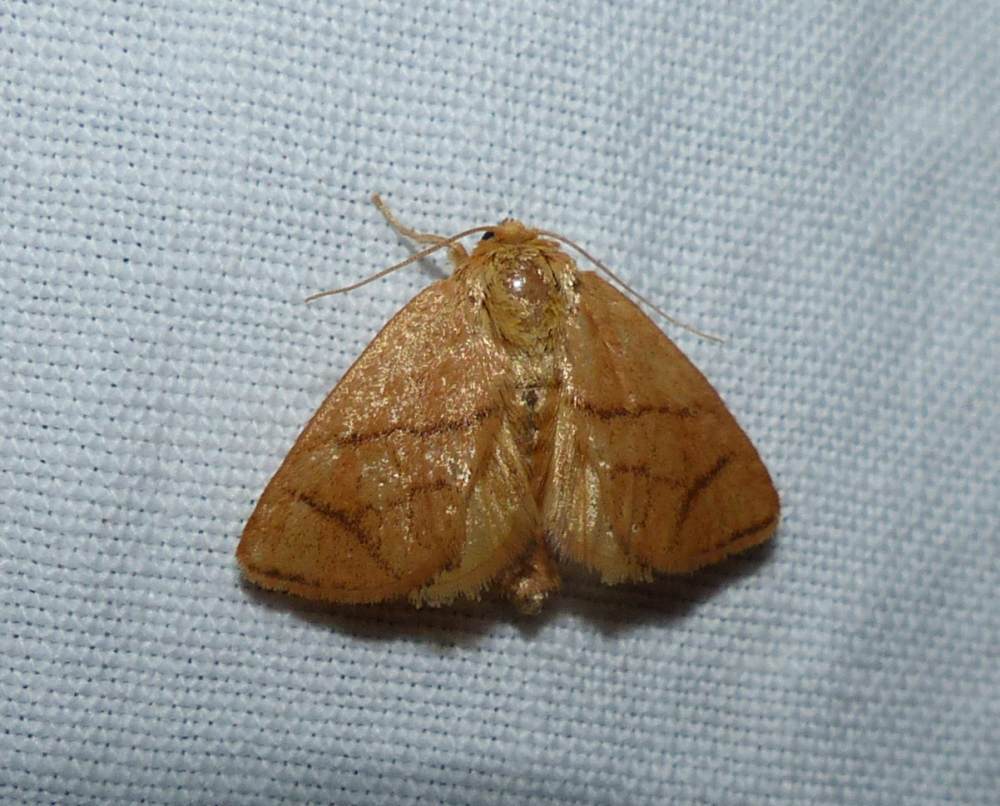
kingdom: Animalia
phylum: Arthropoda
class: Insecta
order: Lepidoptera
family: Limacodidae
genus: Apoda
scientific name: Apoda y-inversa
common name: Yellow-collared slug moth
